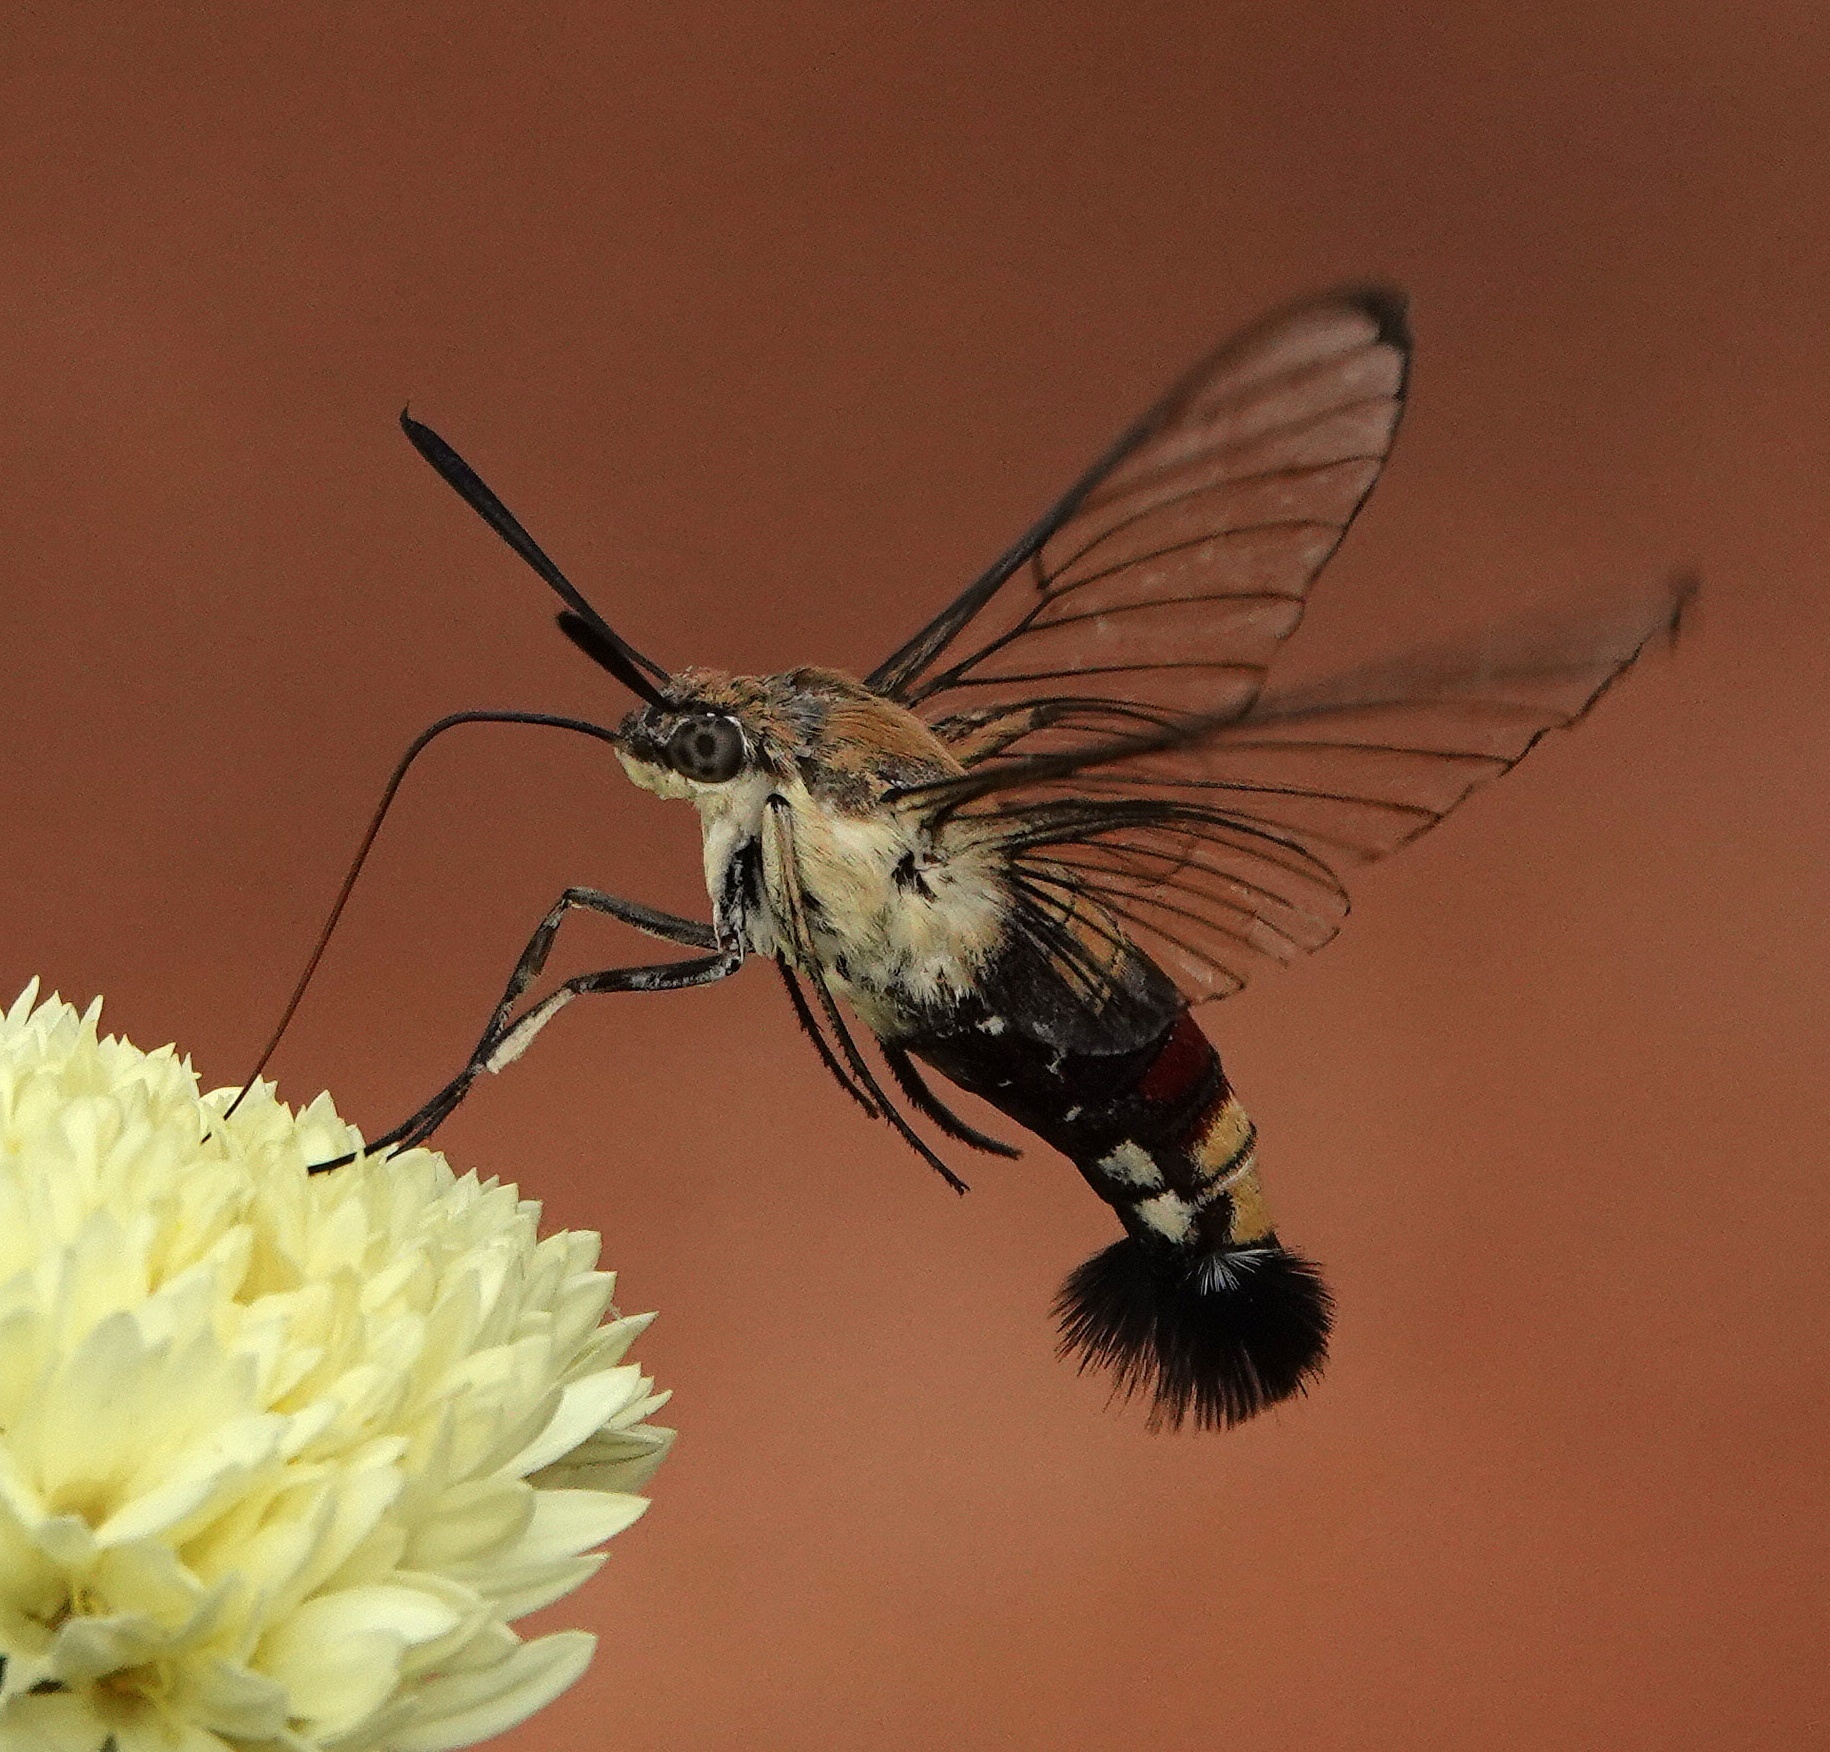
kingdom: Animalia
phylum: Arthropoda
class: Insecta
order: Lepidoptera
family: Sphingidae
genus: Cephonodes
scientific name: Cephonodes hylas
